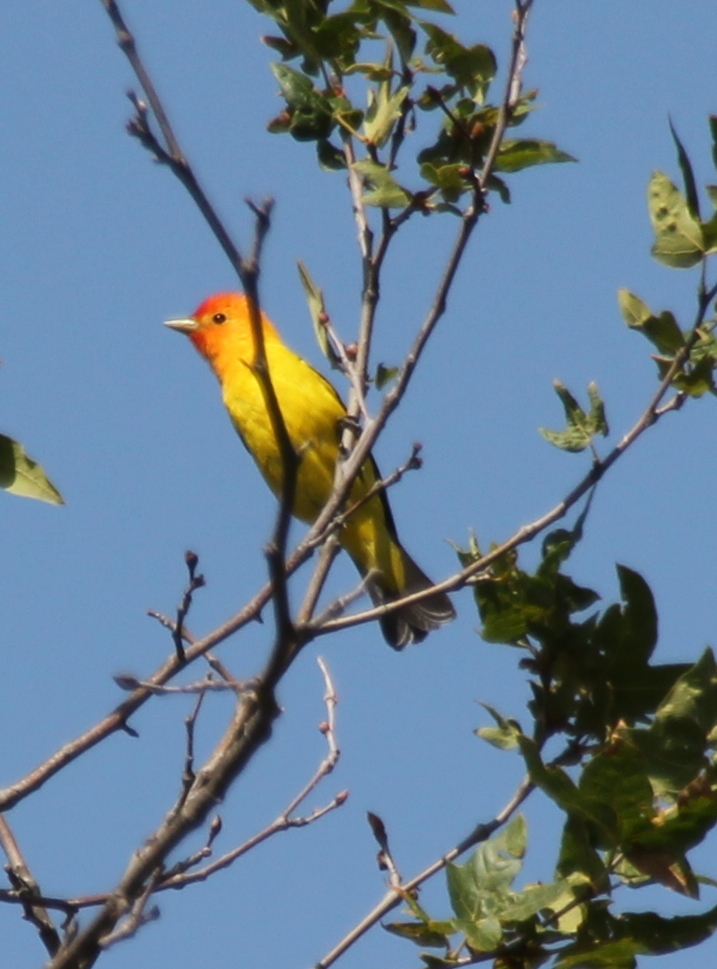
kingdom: Animalia
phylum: Chordata
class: Aves
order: Passeriformes
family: Cardinalidae
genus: Piranga
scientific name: Piranga ludoviciana
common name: Western tanager
